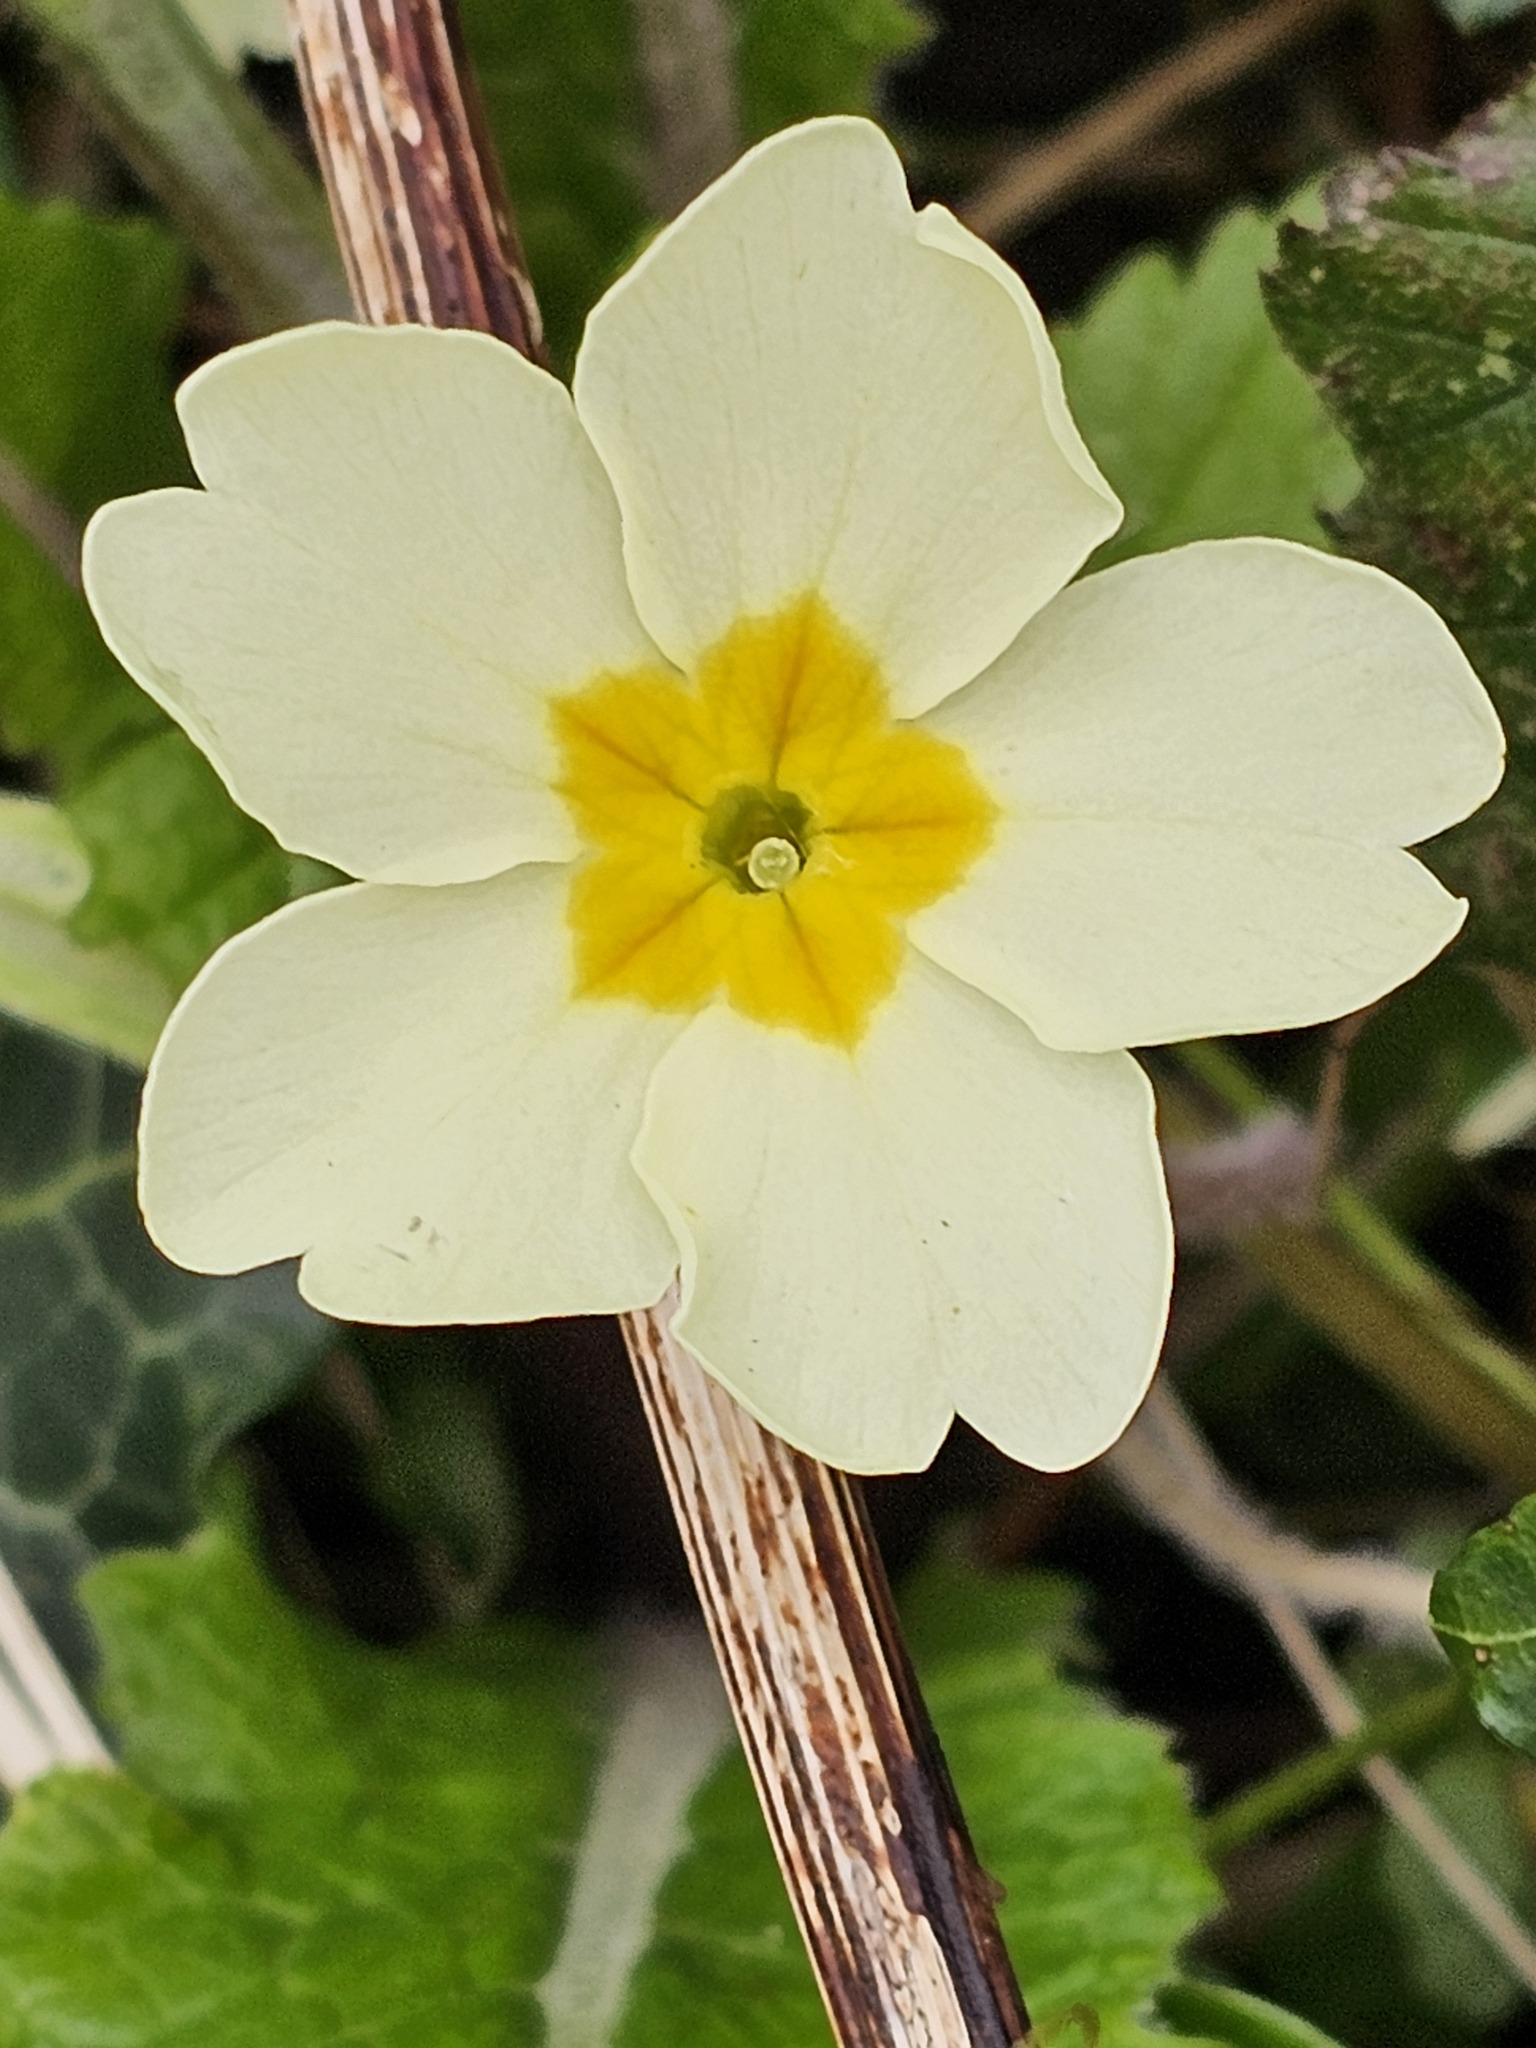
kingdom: Plantae
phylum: Tracheophyta
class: Magnoliopsida
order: Ericales
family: Primulaceae
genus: Primula
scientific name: Primula vulgaris
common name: Primrose
